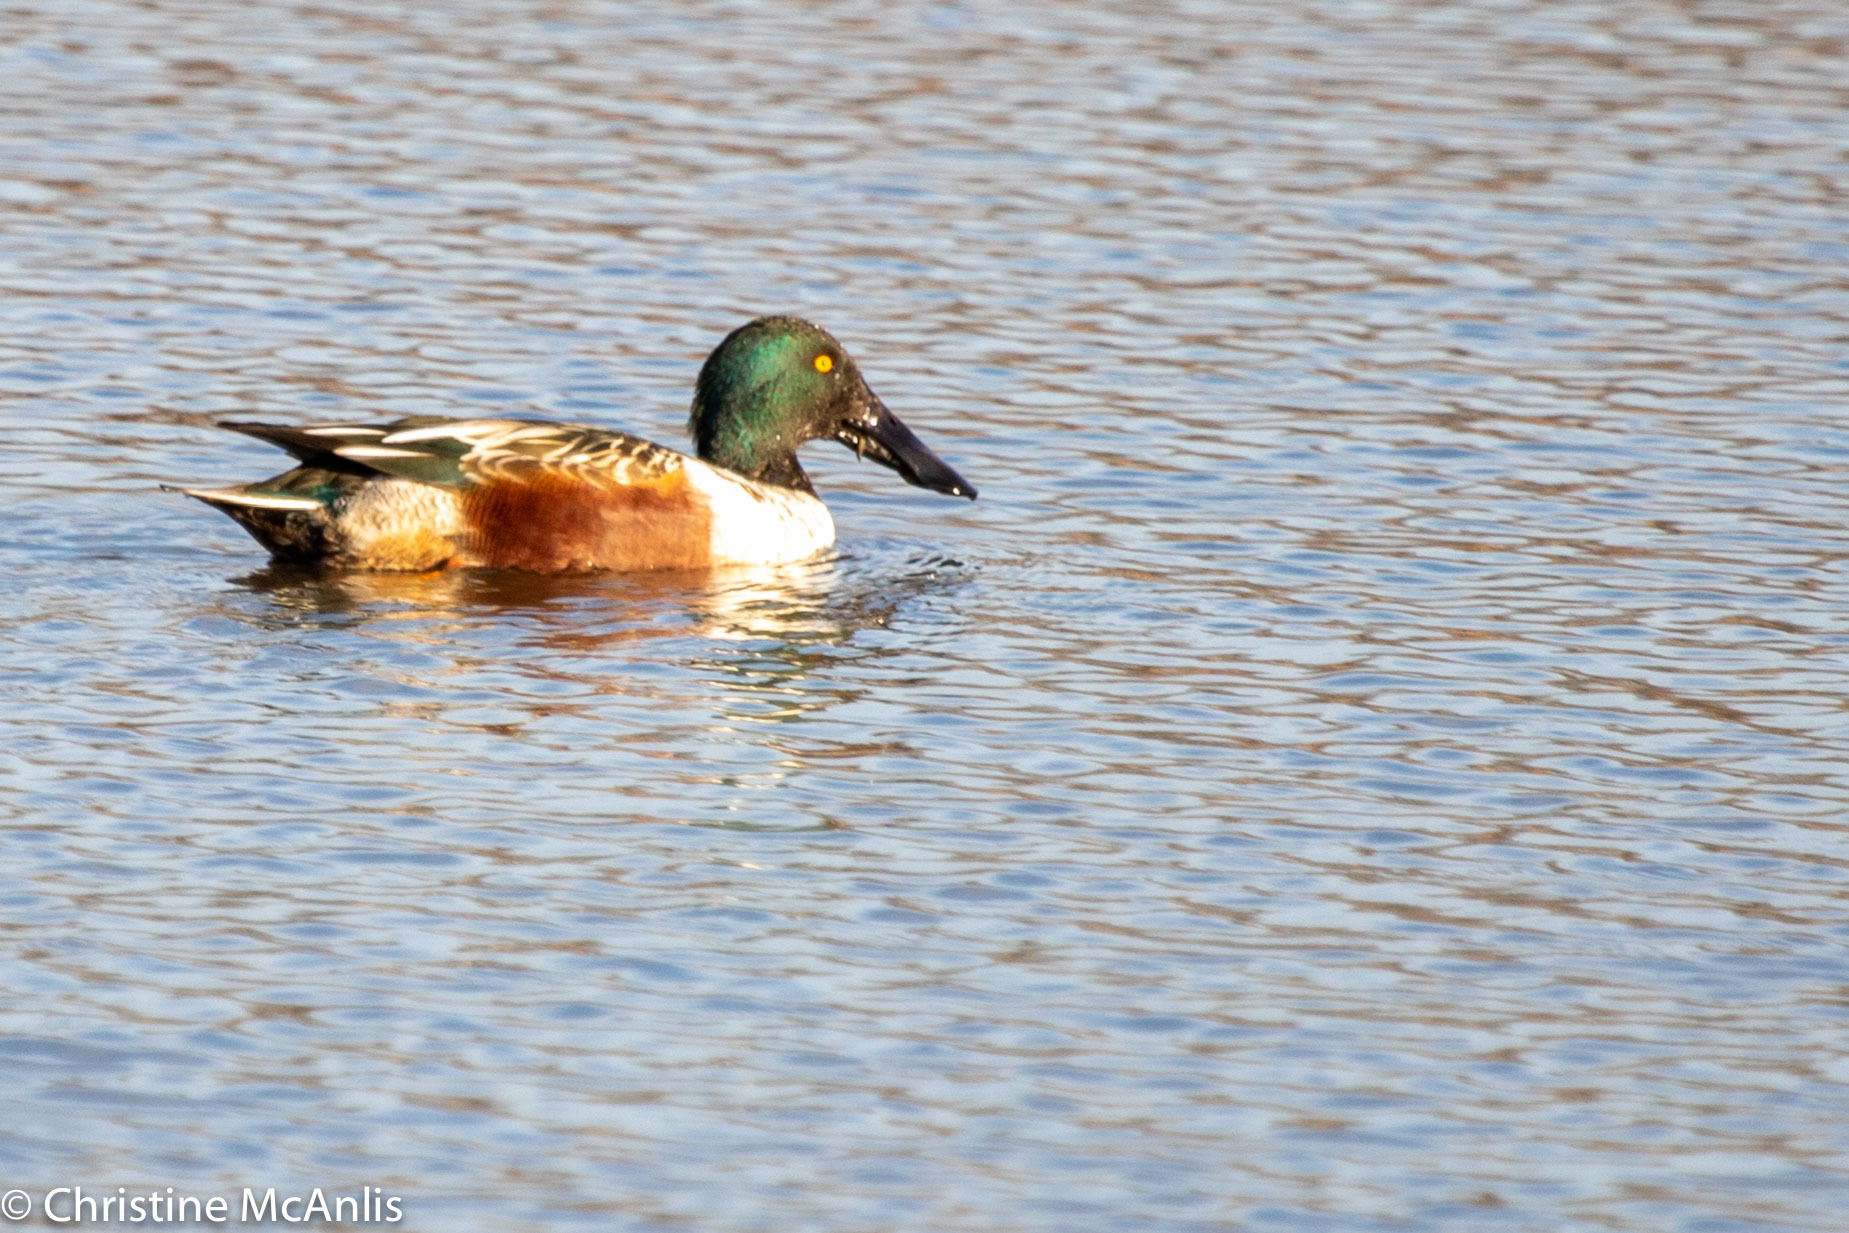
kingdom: Animalia
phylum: Chordata
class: Aves
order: Anseriformes
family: Anatidae
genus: Spatula
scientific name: Spatula clypeata
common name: Northern shoveler
